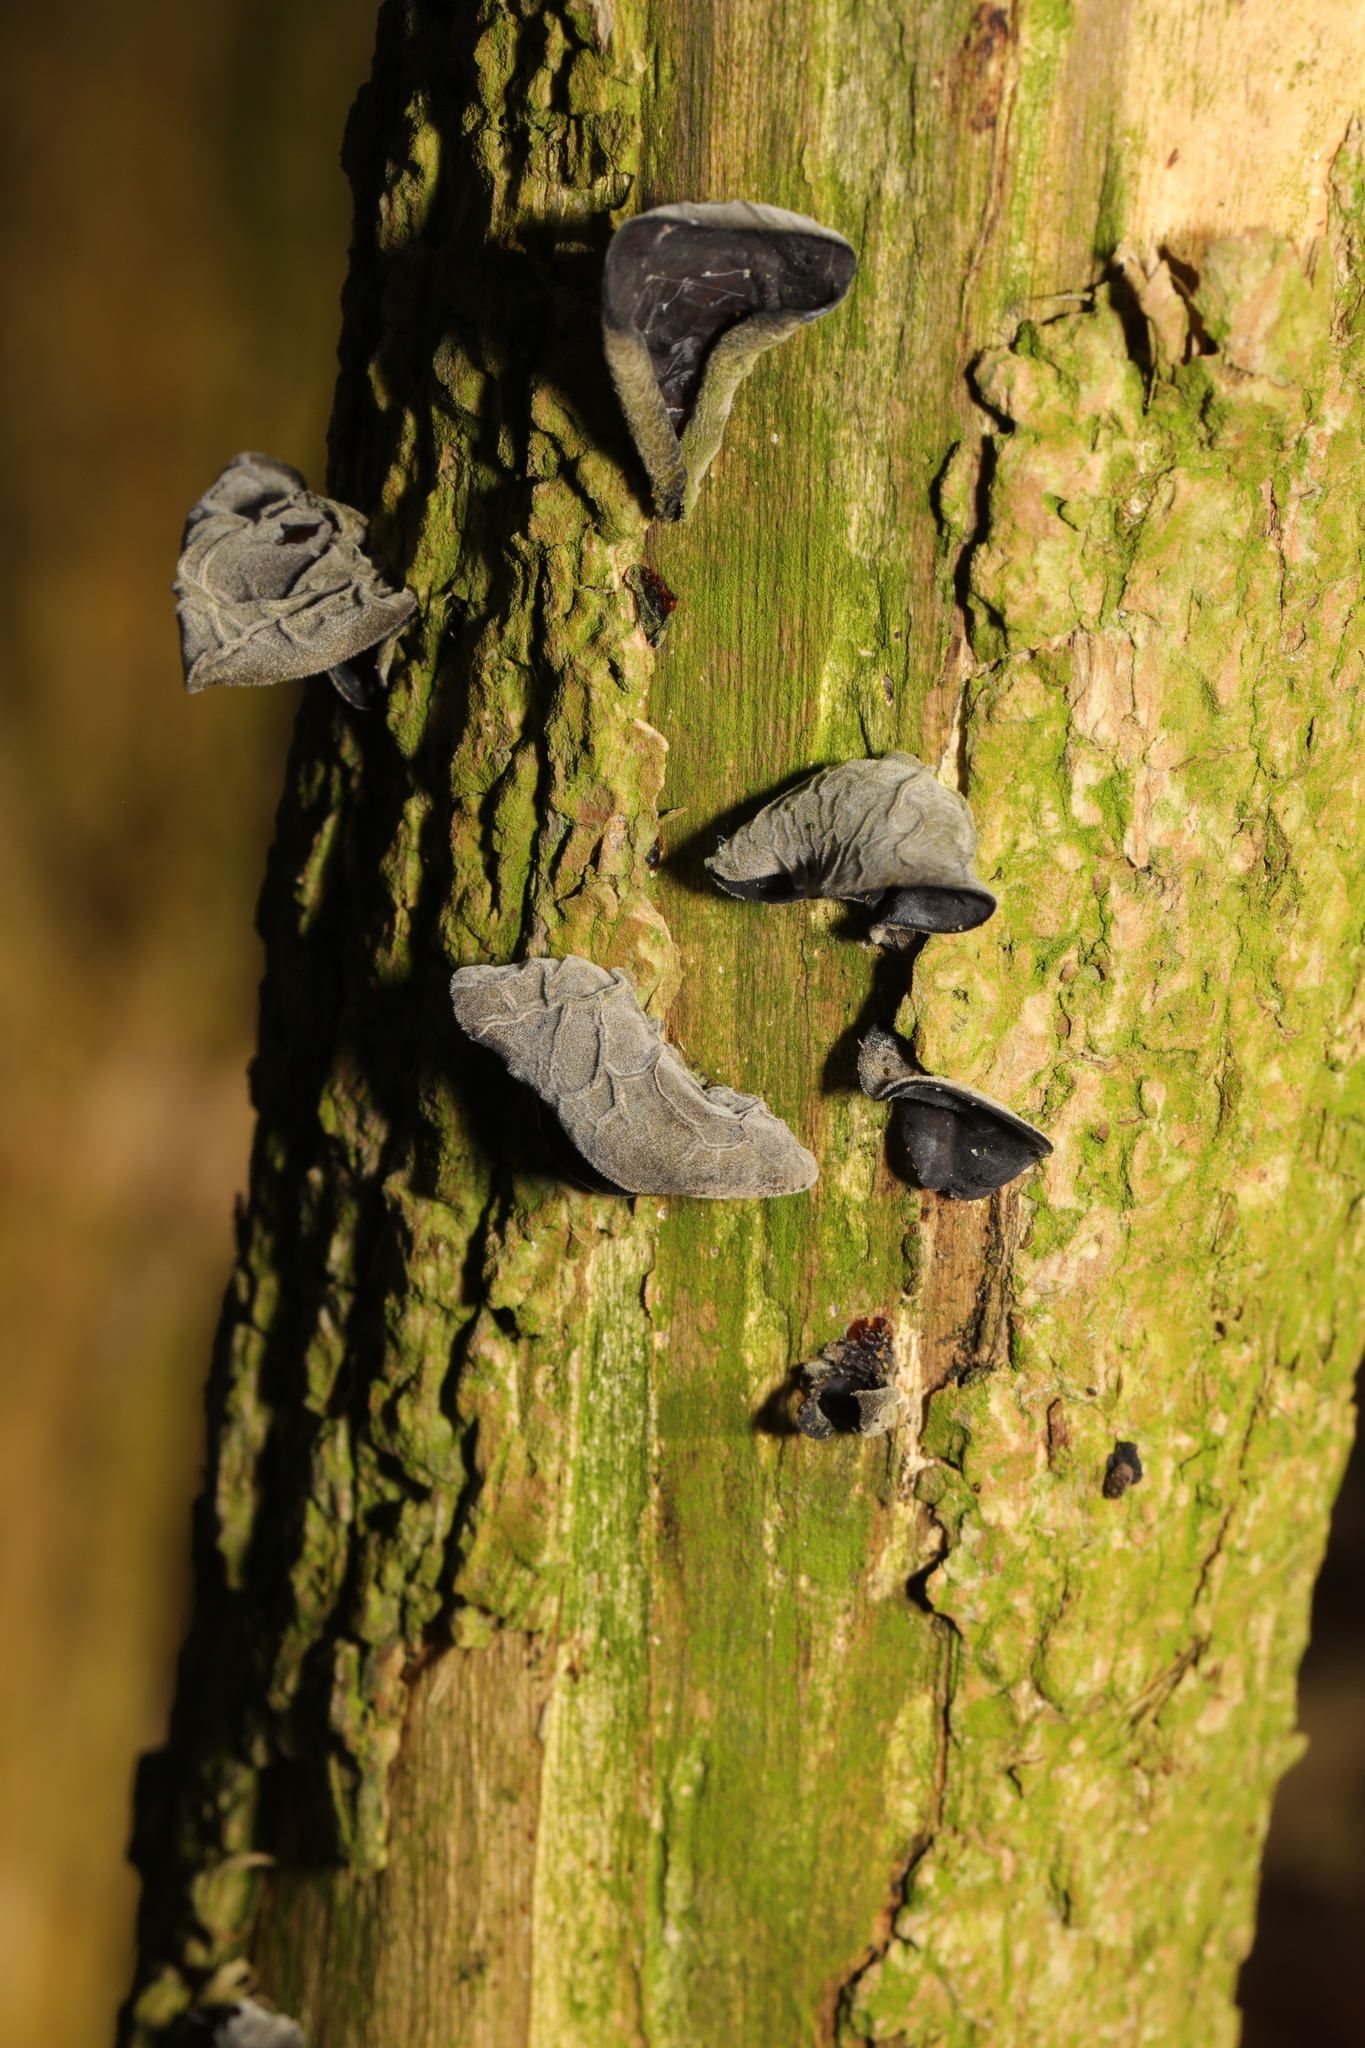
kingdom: Fungi
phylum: Basidiomycota
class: Agaricomycetes
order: Auriculariales
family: Auriculariaceae
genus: Auricularia
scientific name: Auricularia auricula-judae
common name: Jelly ear
